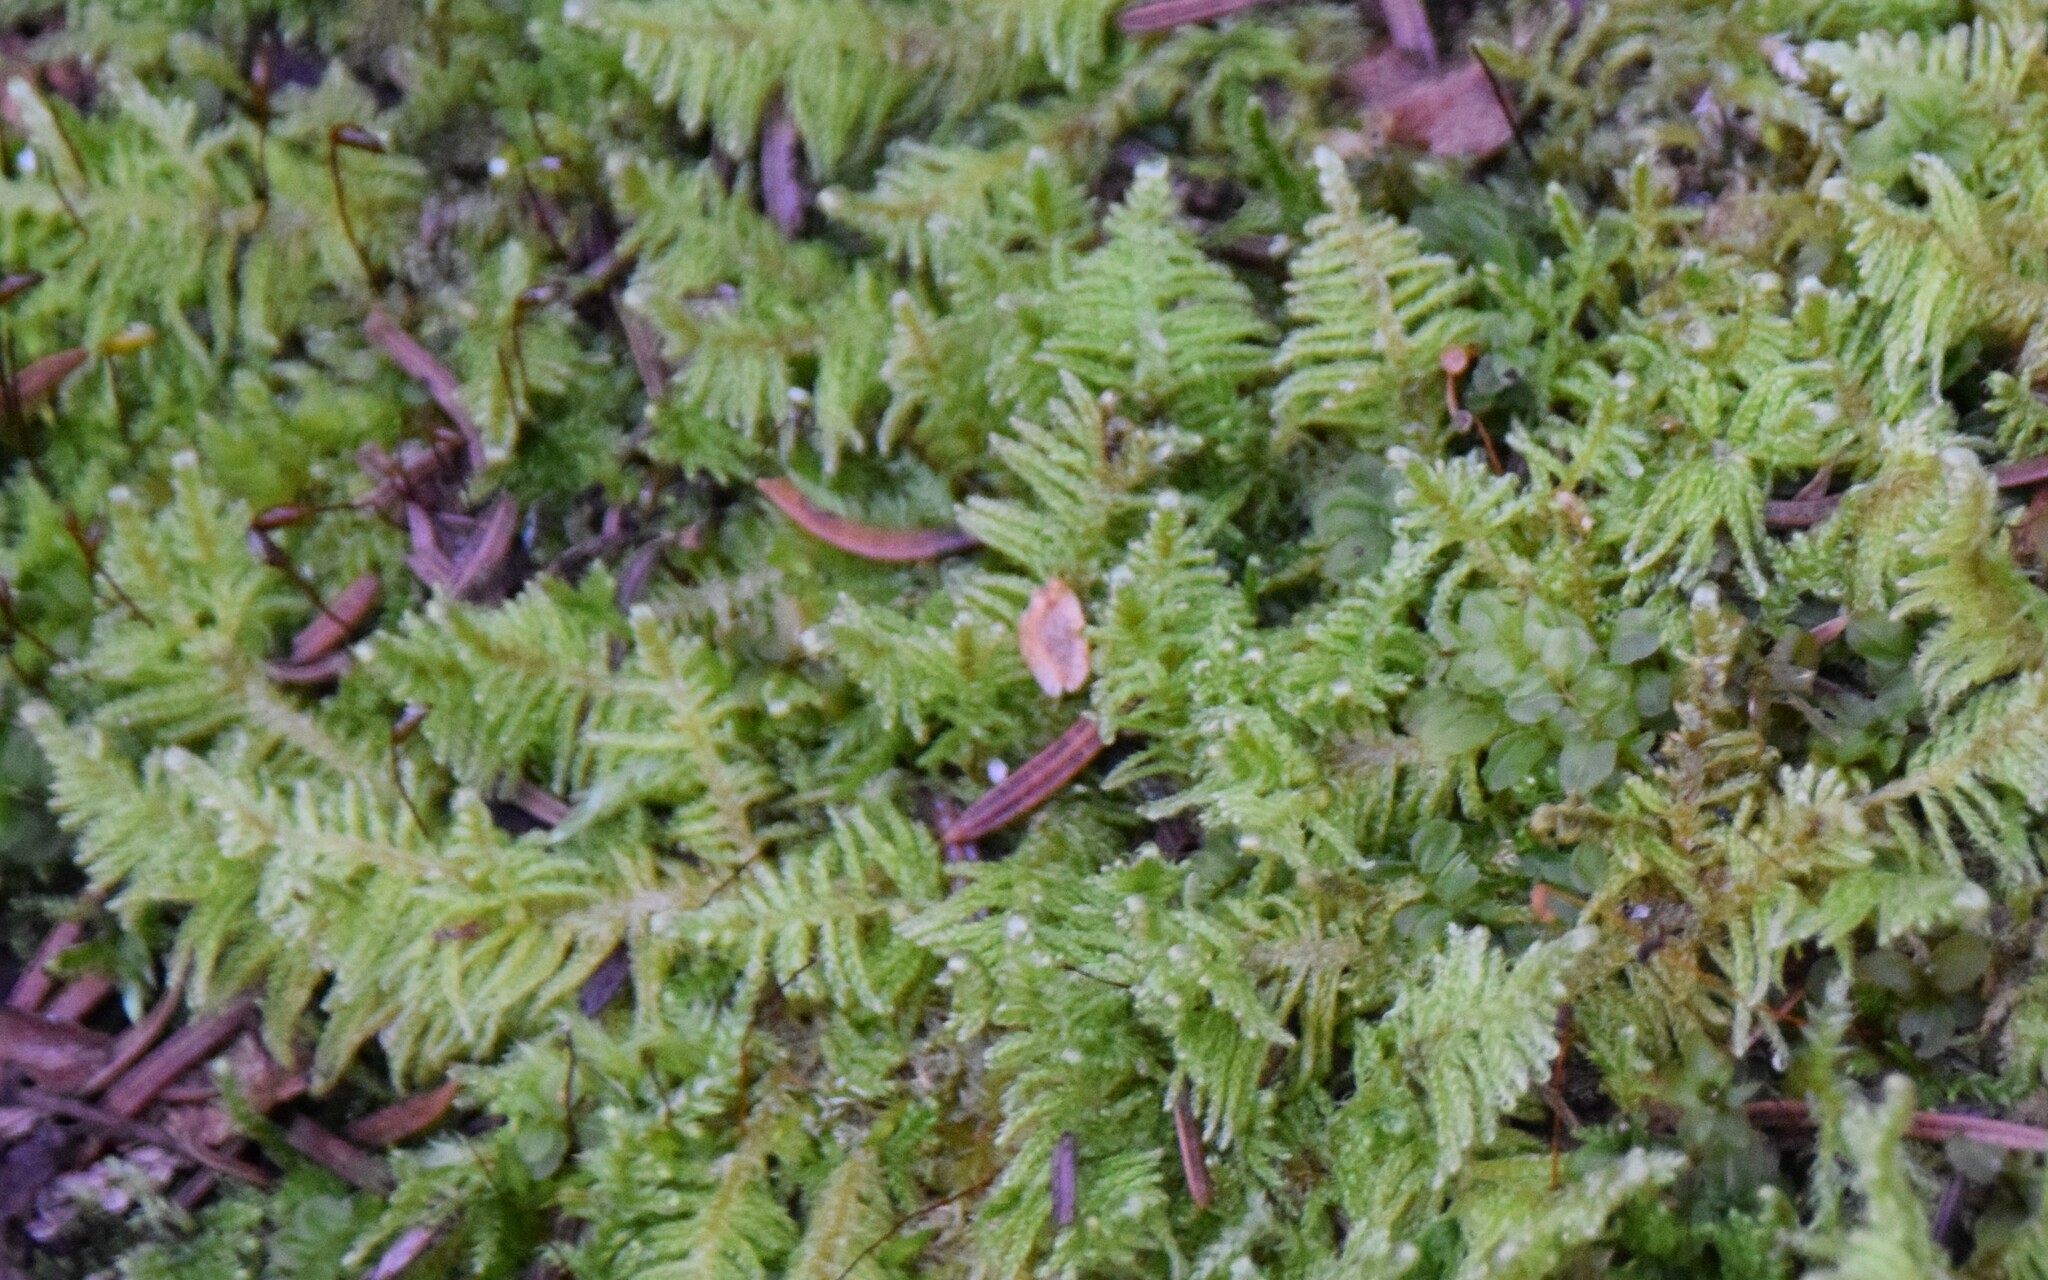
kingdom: Plantae
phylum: Bryophyta
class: Bryopsida
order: Hypnales
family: Pylaisiaceae
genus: Ptilium
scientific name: Ptilium crista-castrensis
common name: Knight's plume moss
